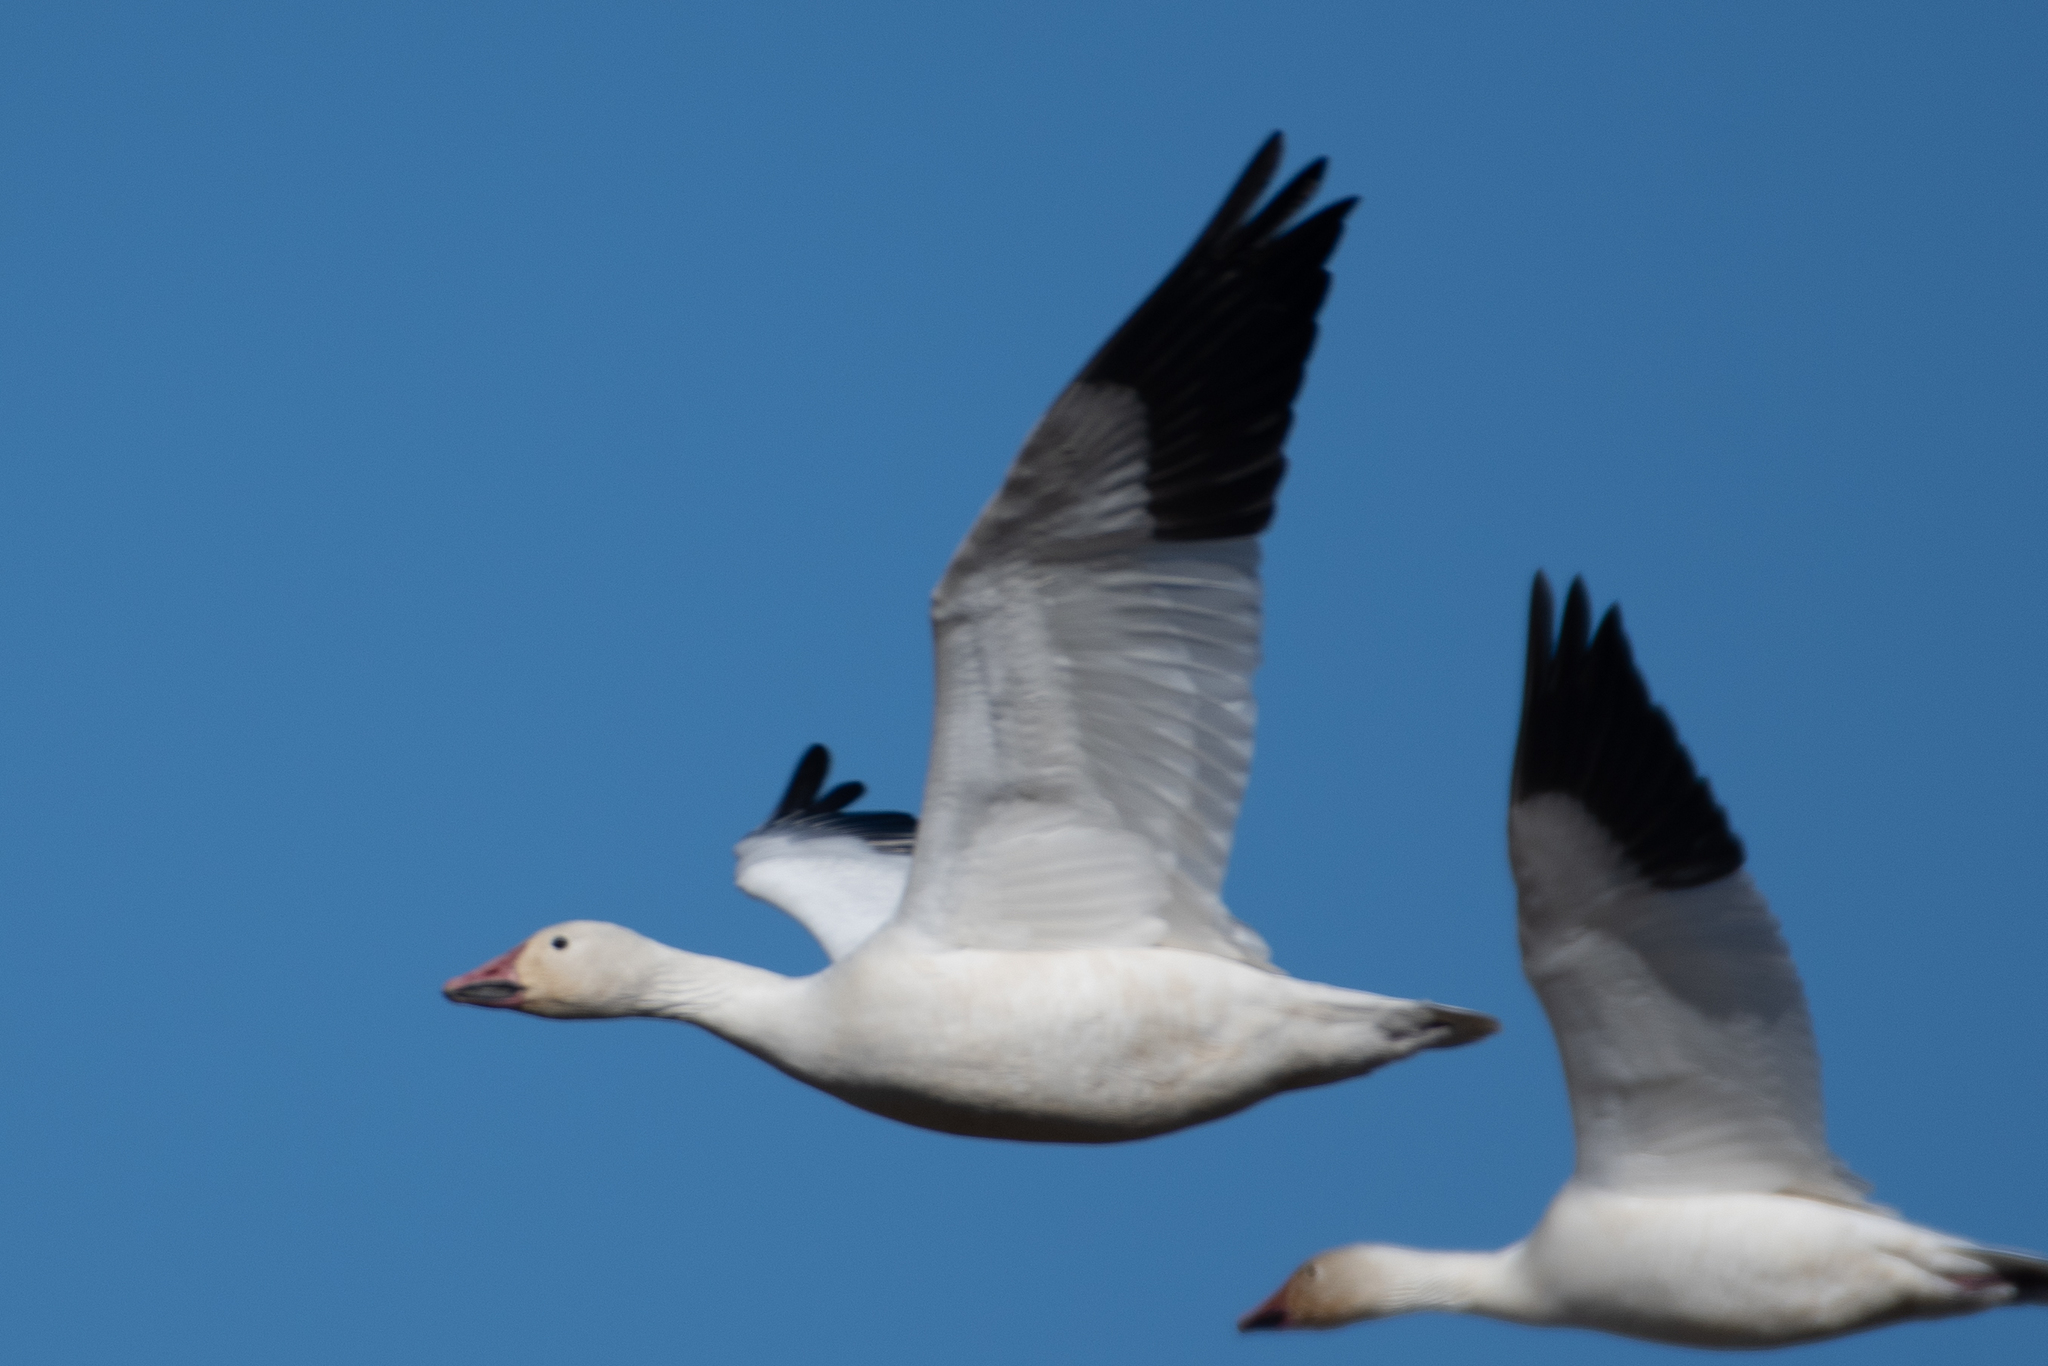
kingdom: Animalia
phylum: Chordata
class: Aves
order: Anseriformes
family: Anatidae
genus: Anser
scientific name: Anser caerulescens
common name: Snow goose
